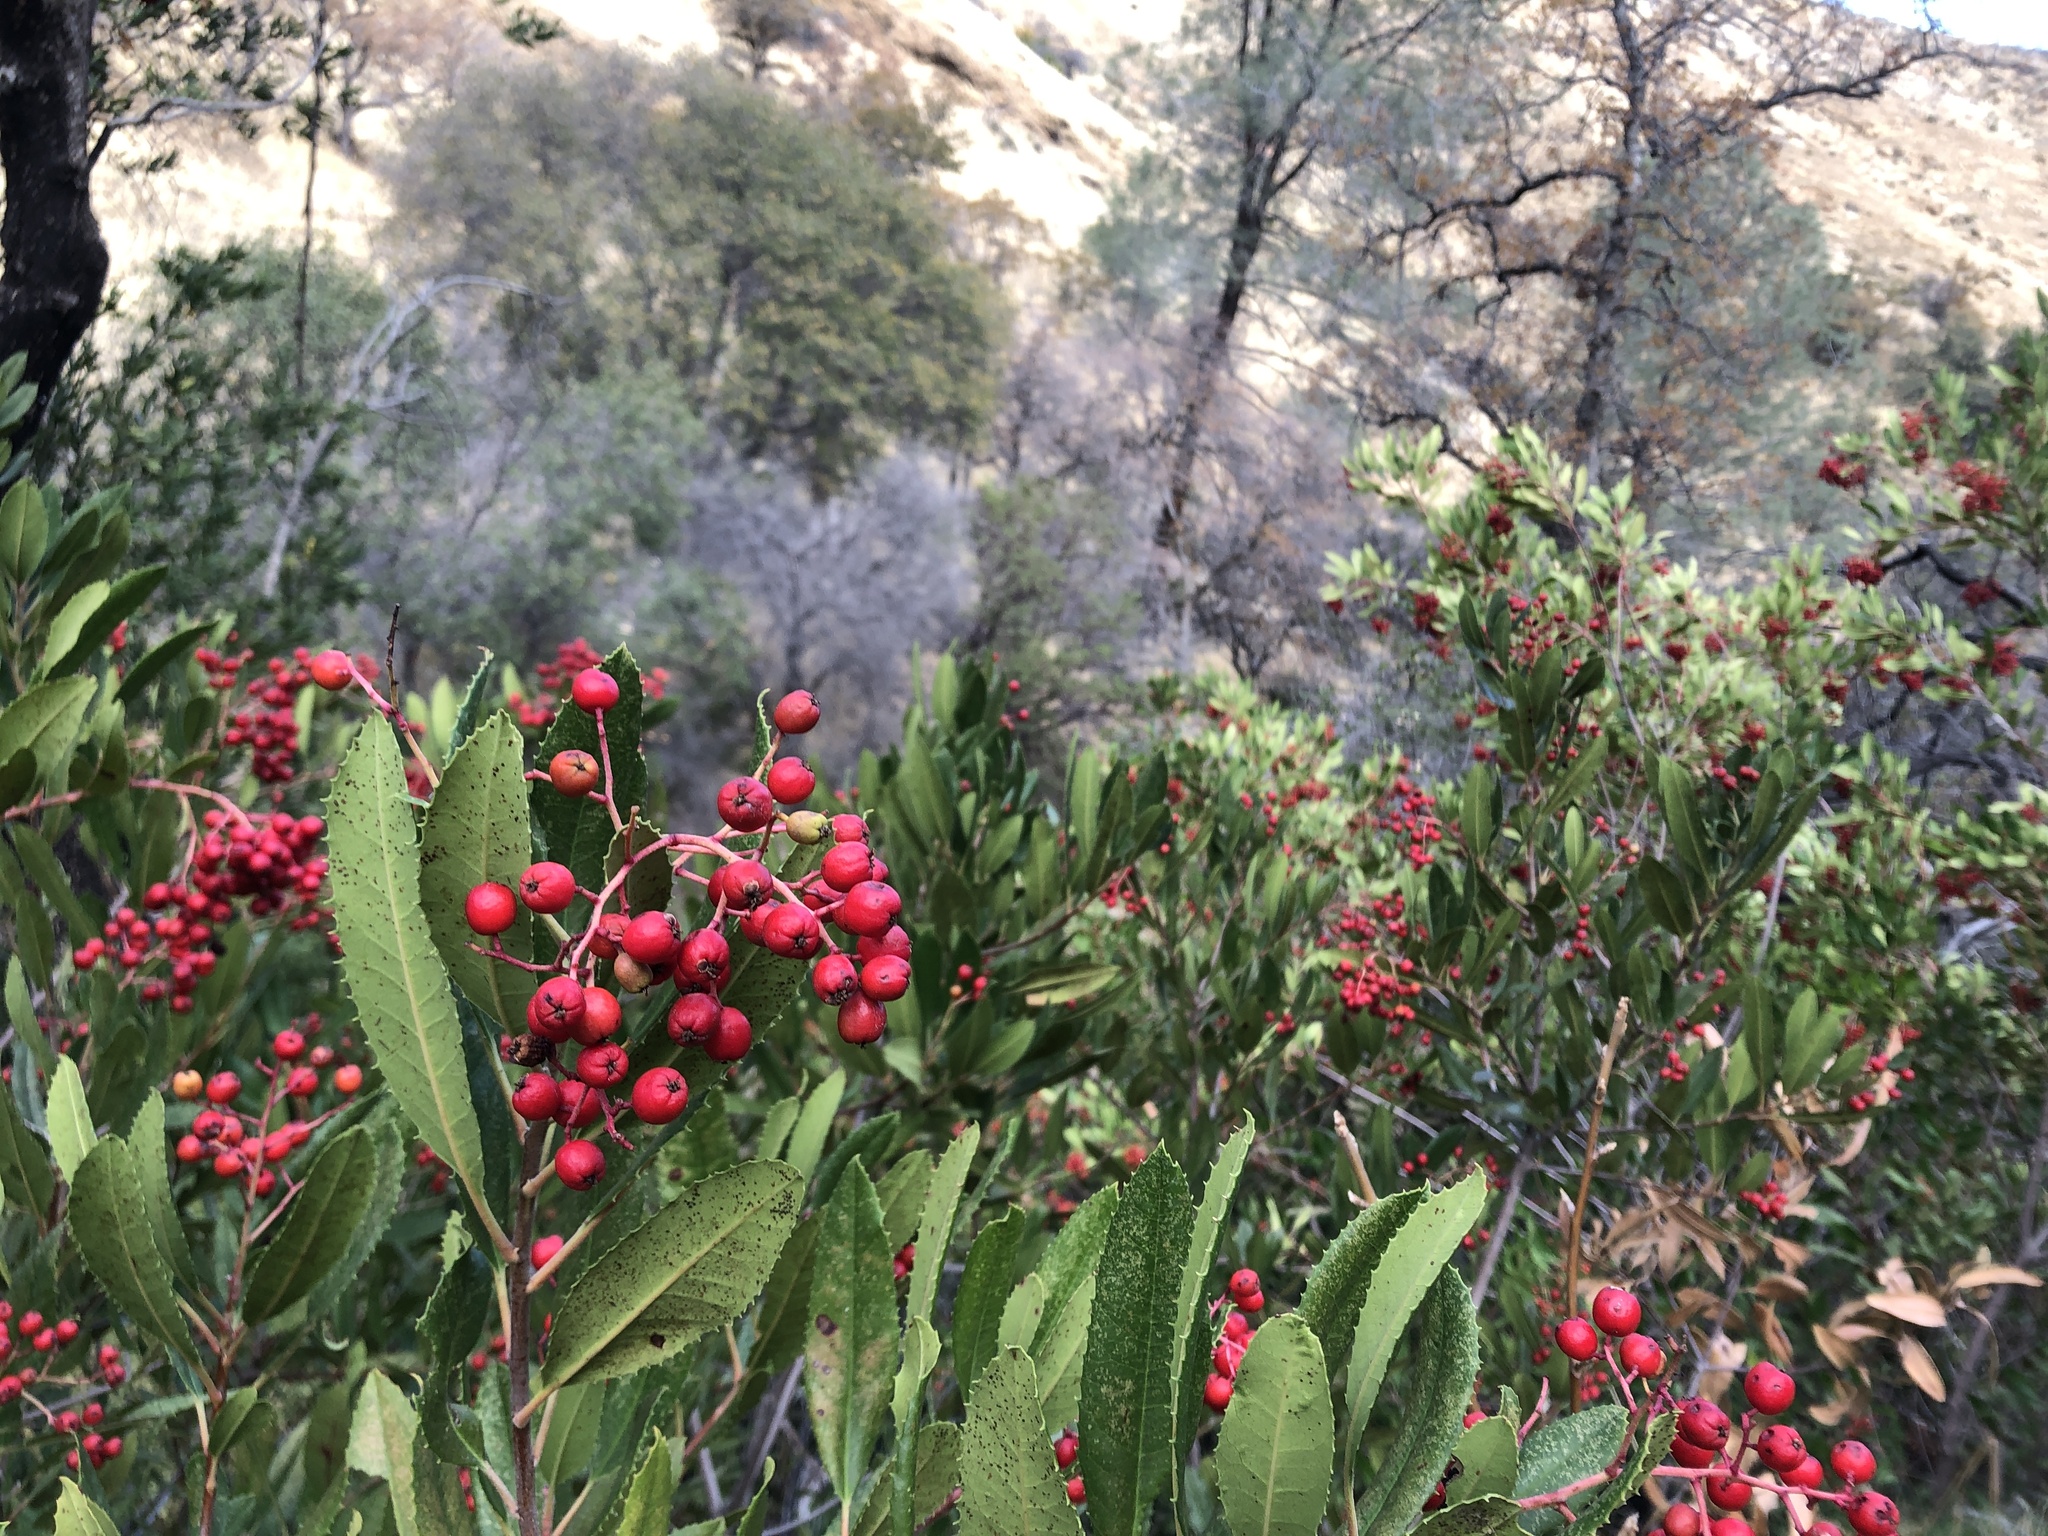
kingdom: Plantae
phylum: Tracheophyta
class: Magnoliopsida
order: Rosales
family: Rosaceae
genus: Heteromeles
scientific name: Heteromeles arbutifolia
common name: California-holly
